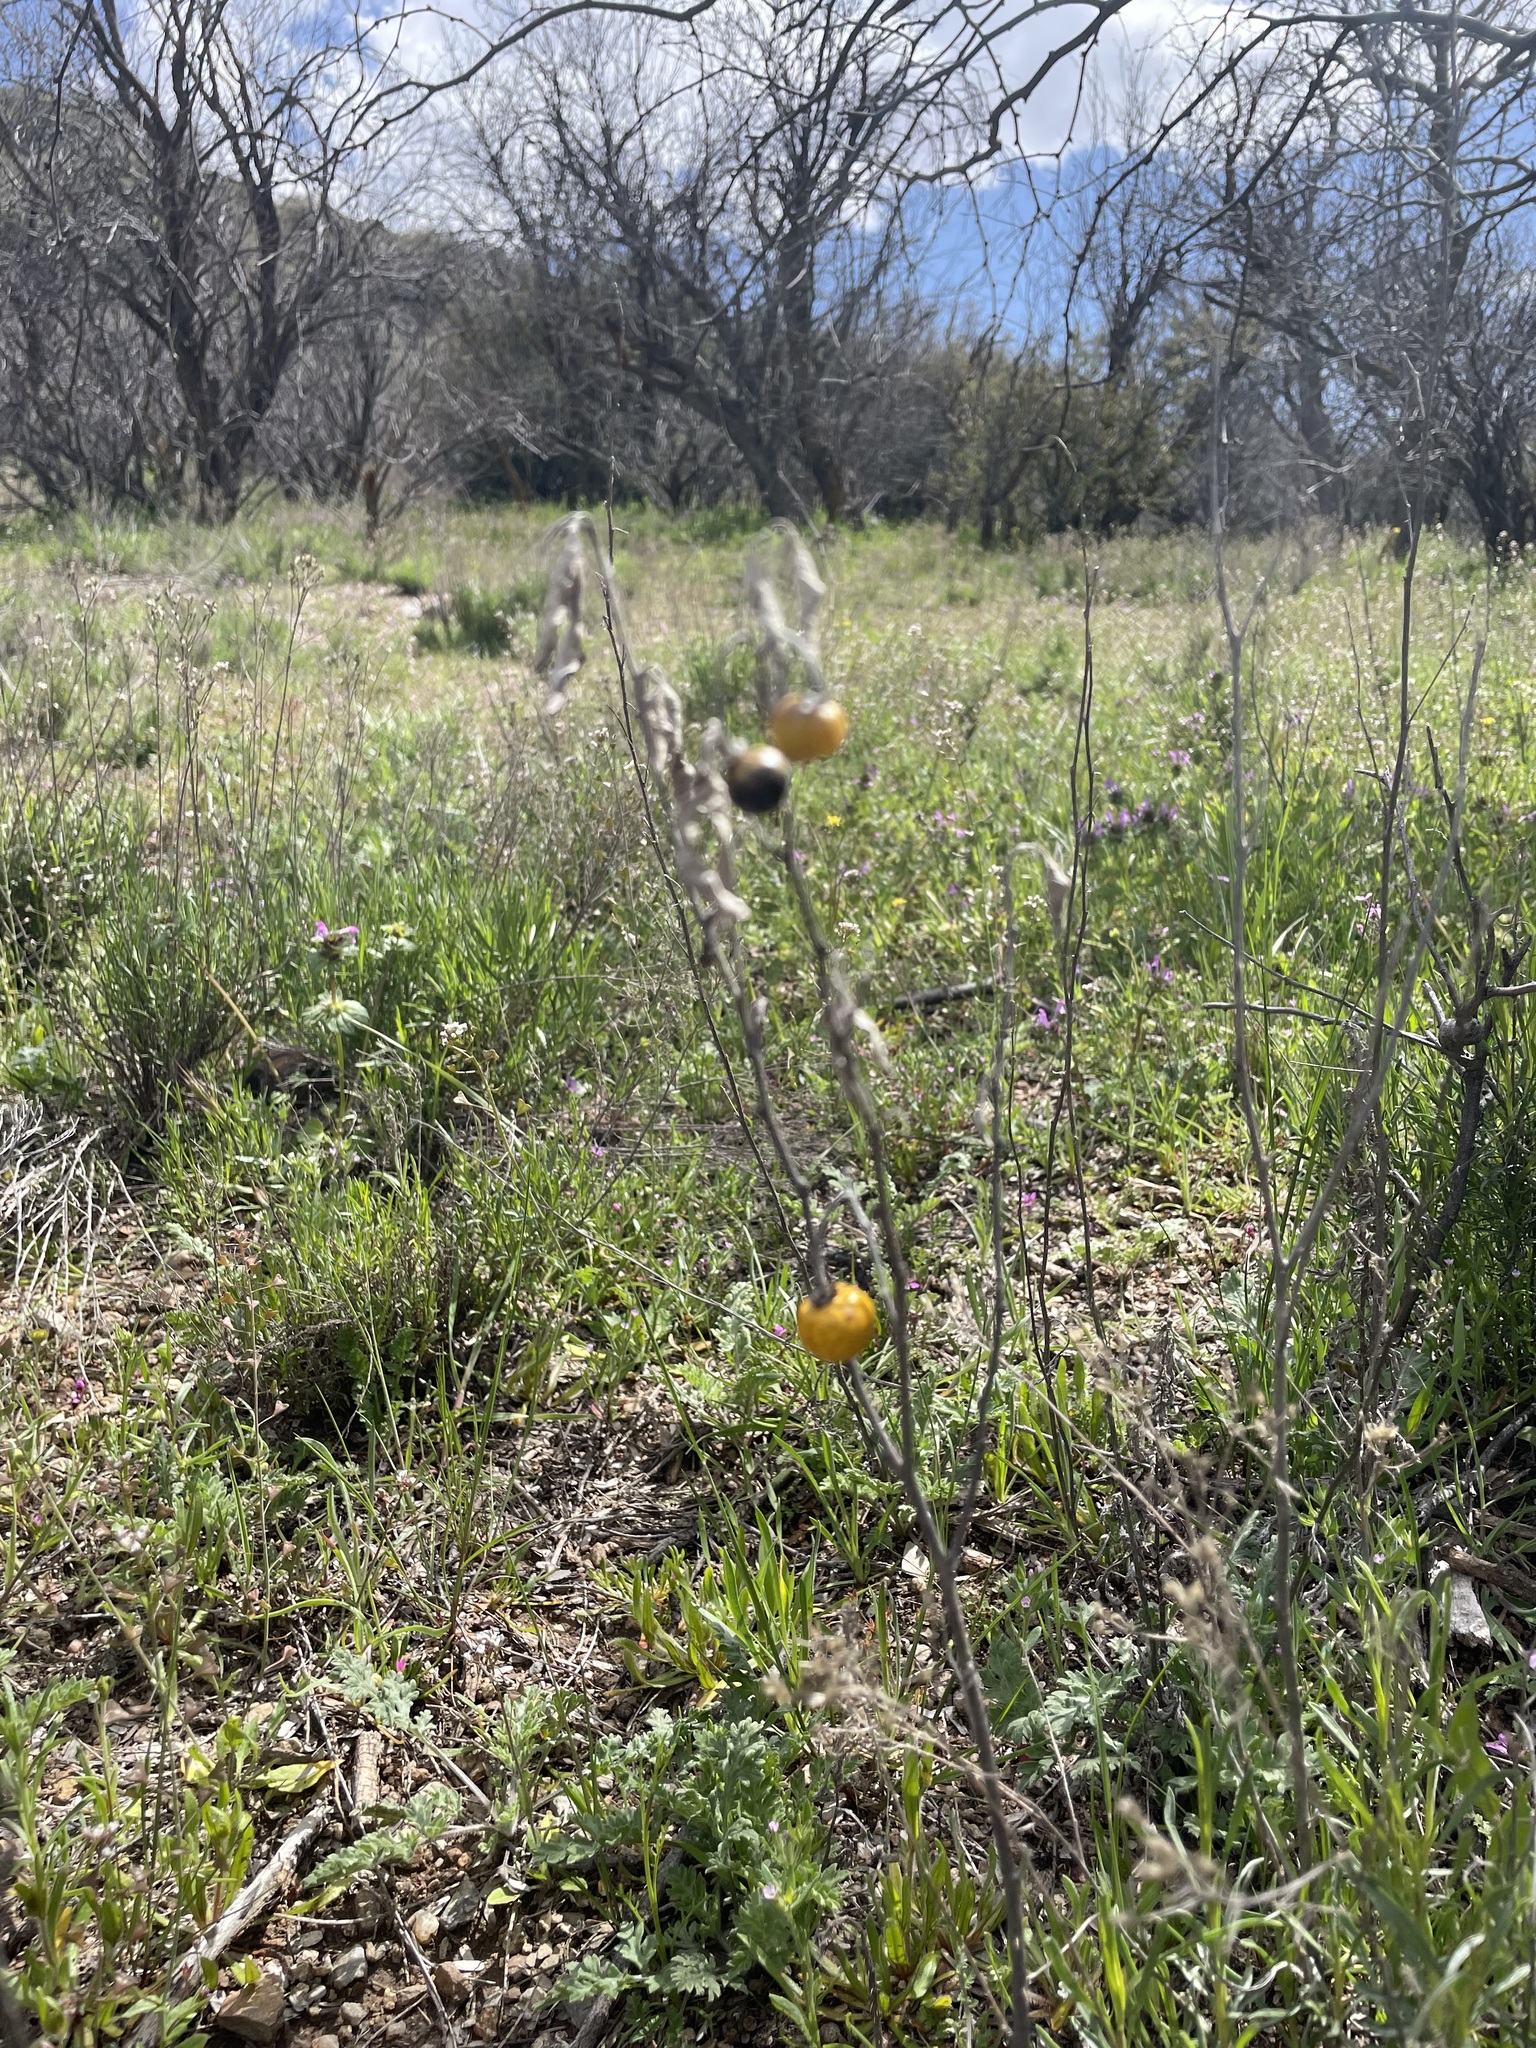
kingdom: Plantae
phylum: Tracheophyta
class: Magnoliopsida
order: Solanales
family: Solanaceae
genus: Solanum
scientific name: Solanum elaeagnifolium
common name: Silverleaf nightshade
